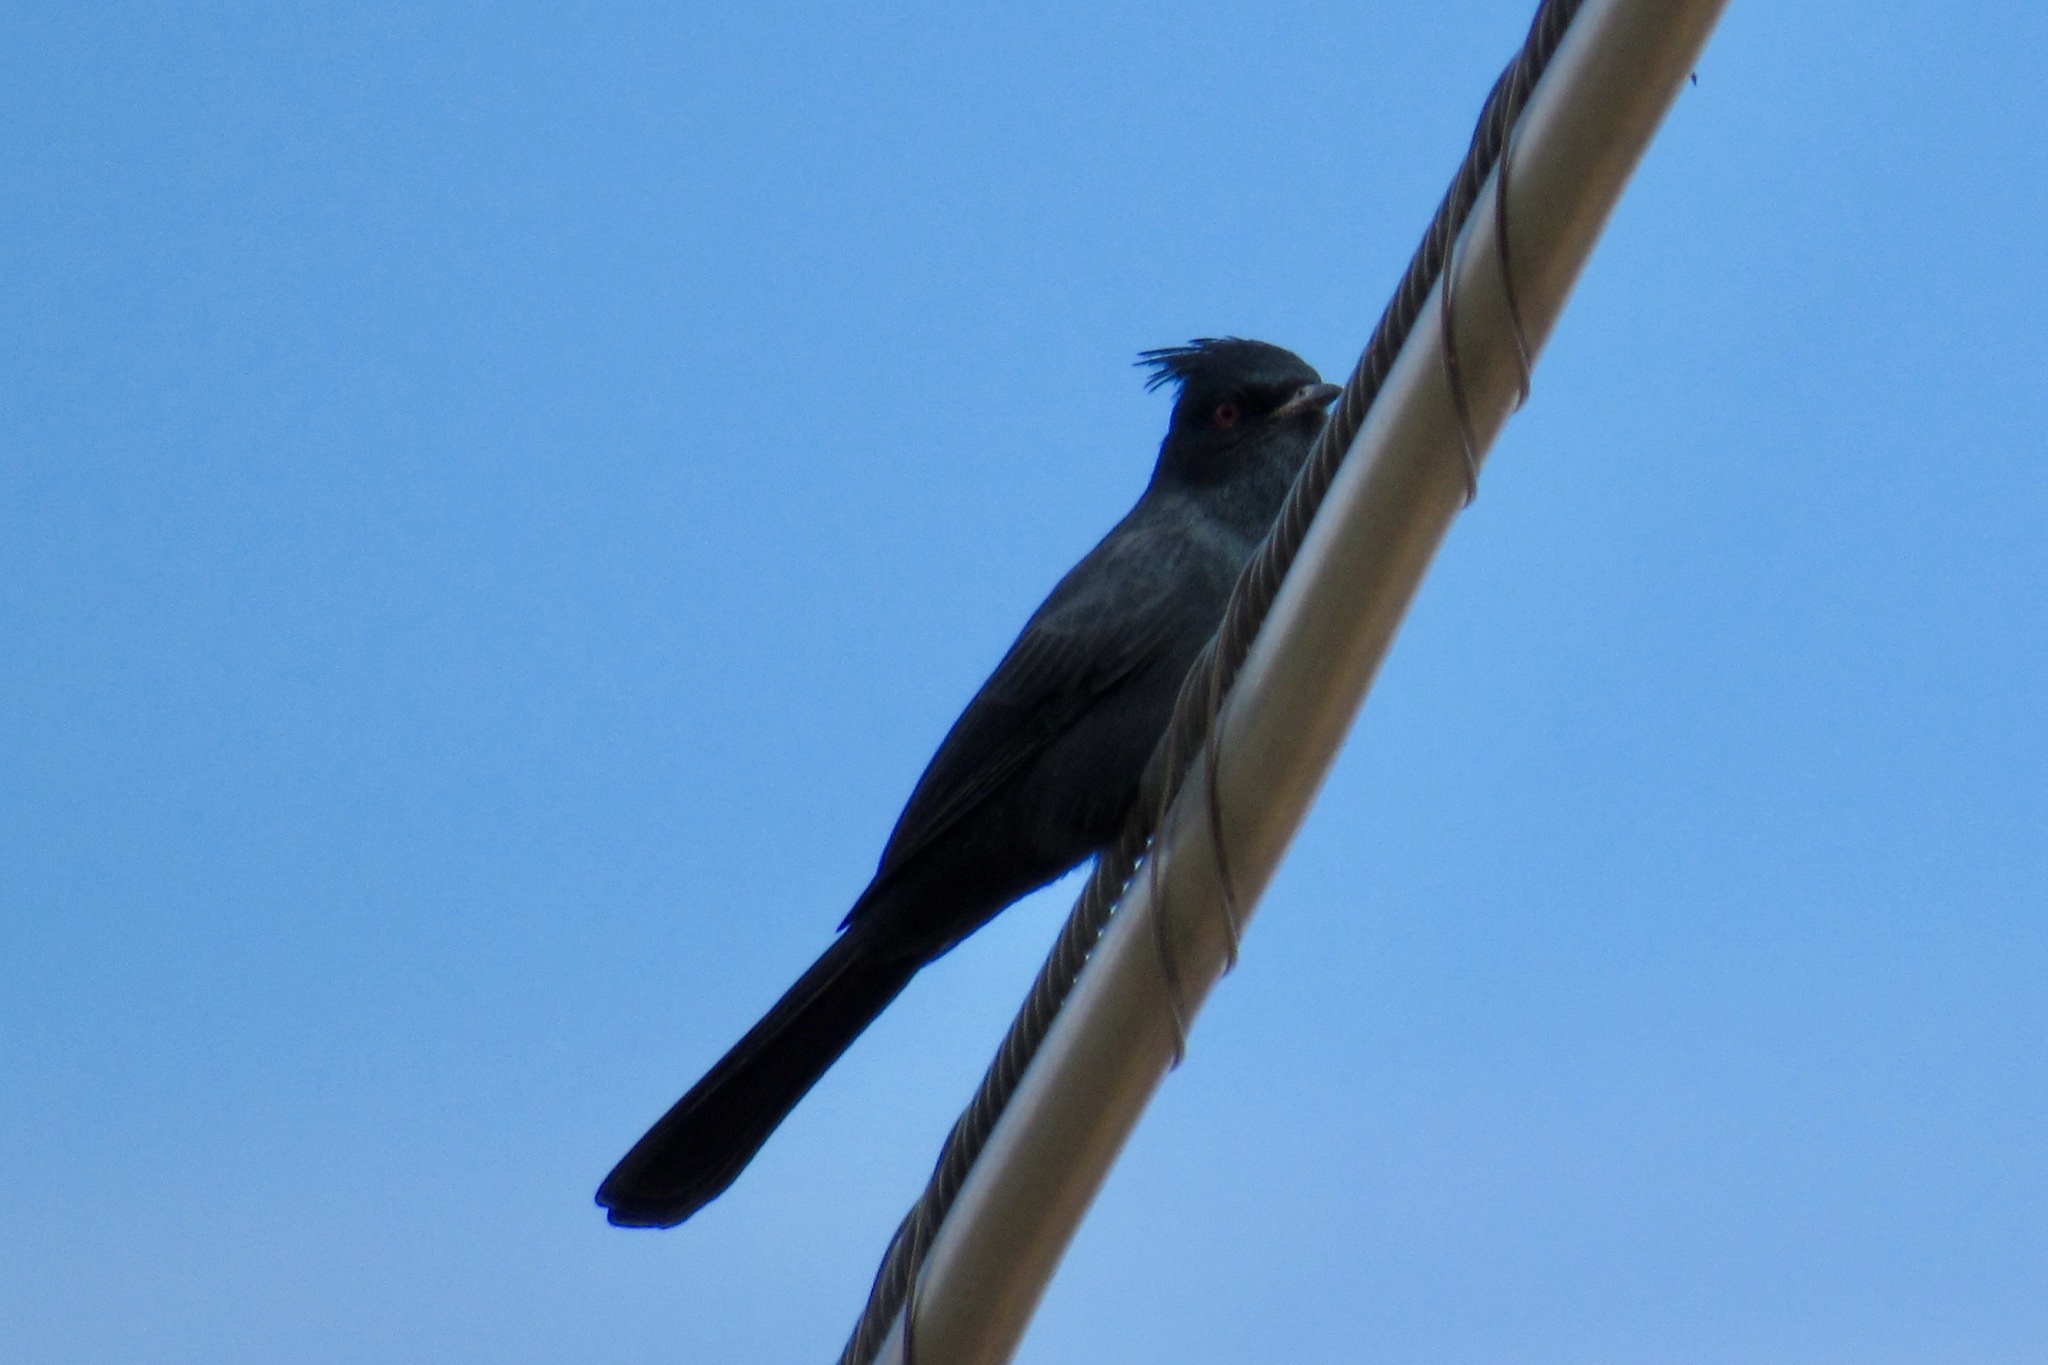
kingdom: Animalia
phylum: Chordata
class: Aves
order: Passeriformes
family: Ptilogonatidae
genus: Phainopepla
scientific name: Phainopepla nitens
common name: Phainopepla
